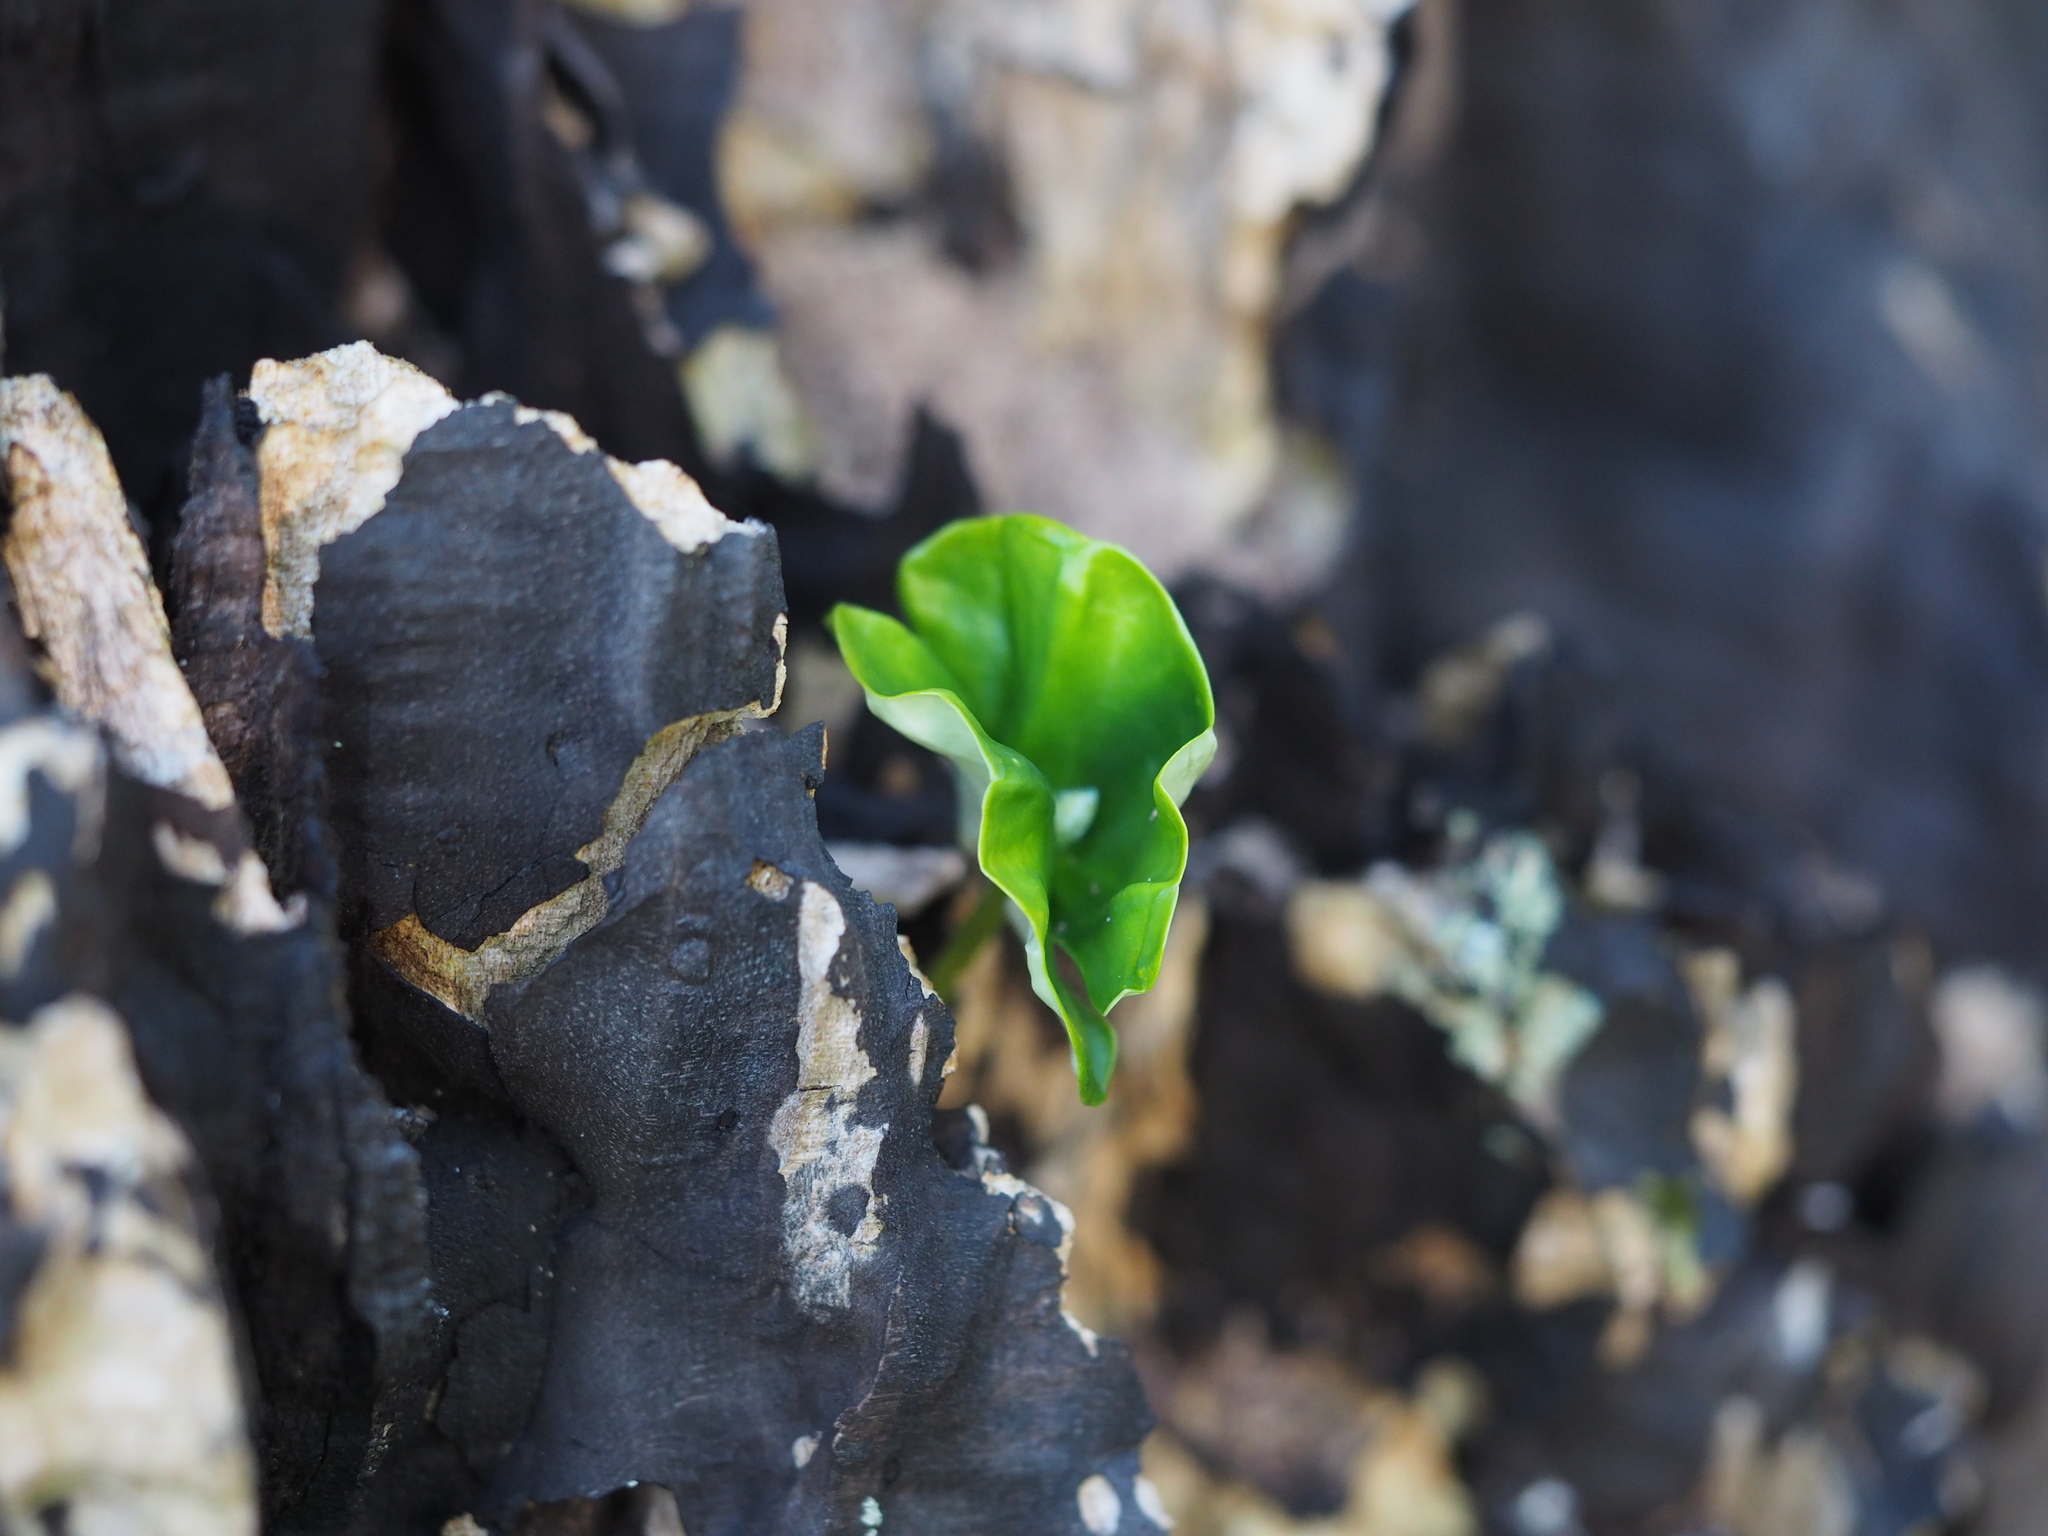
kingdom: Plantae
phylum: Tracheophyta
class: Magnoliopsida
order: Fagales
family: Fagaceae
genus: Fagus
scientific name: Fagus sylvatica
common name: Beech
